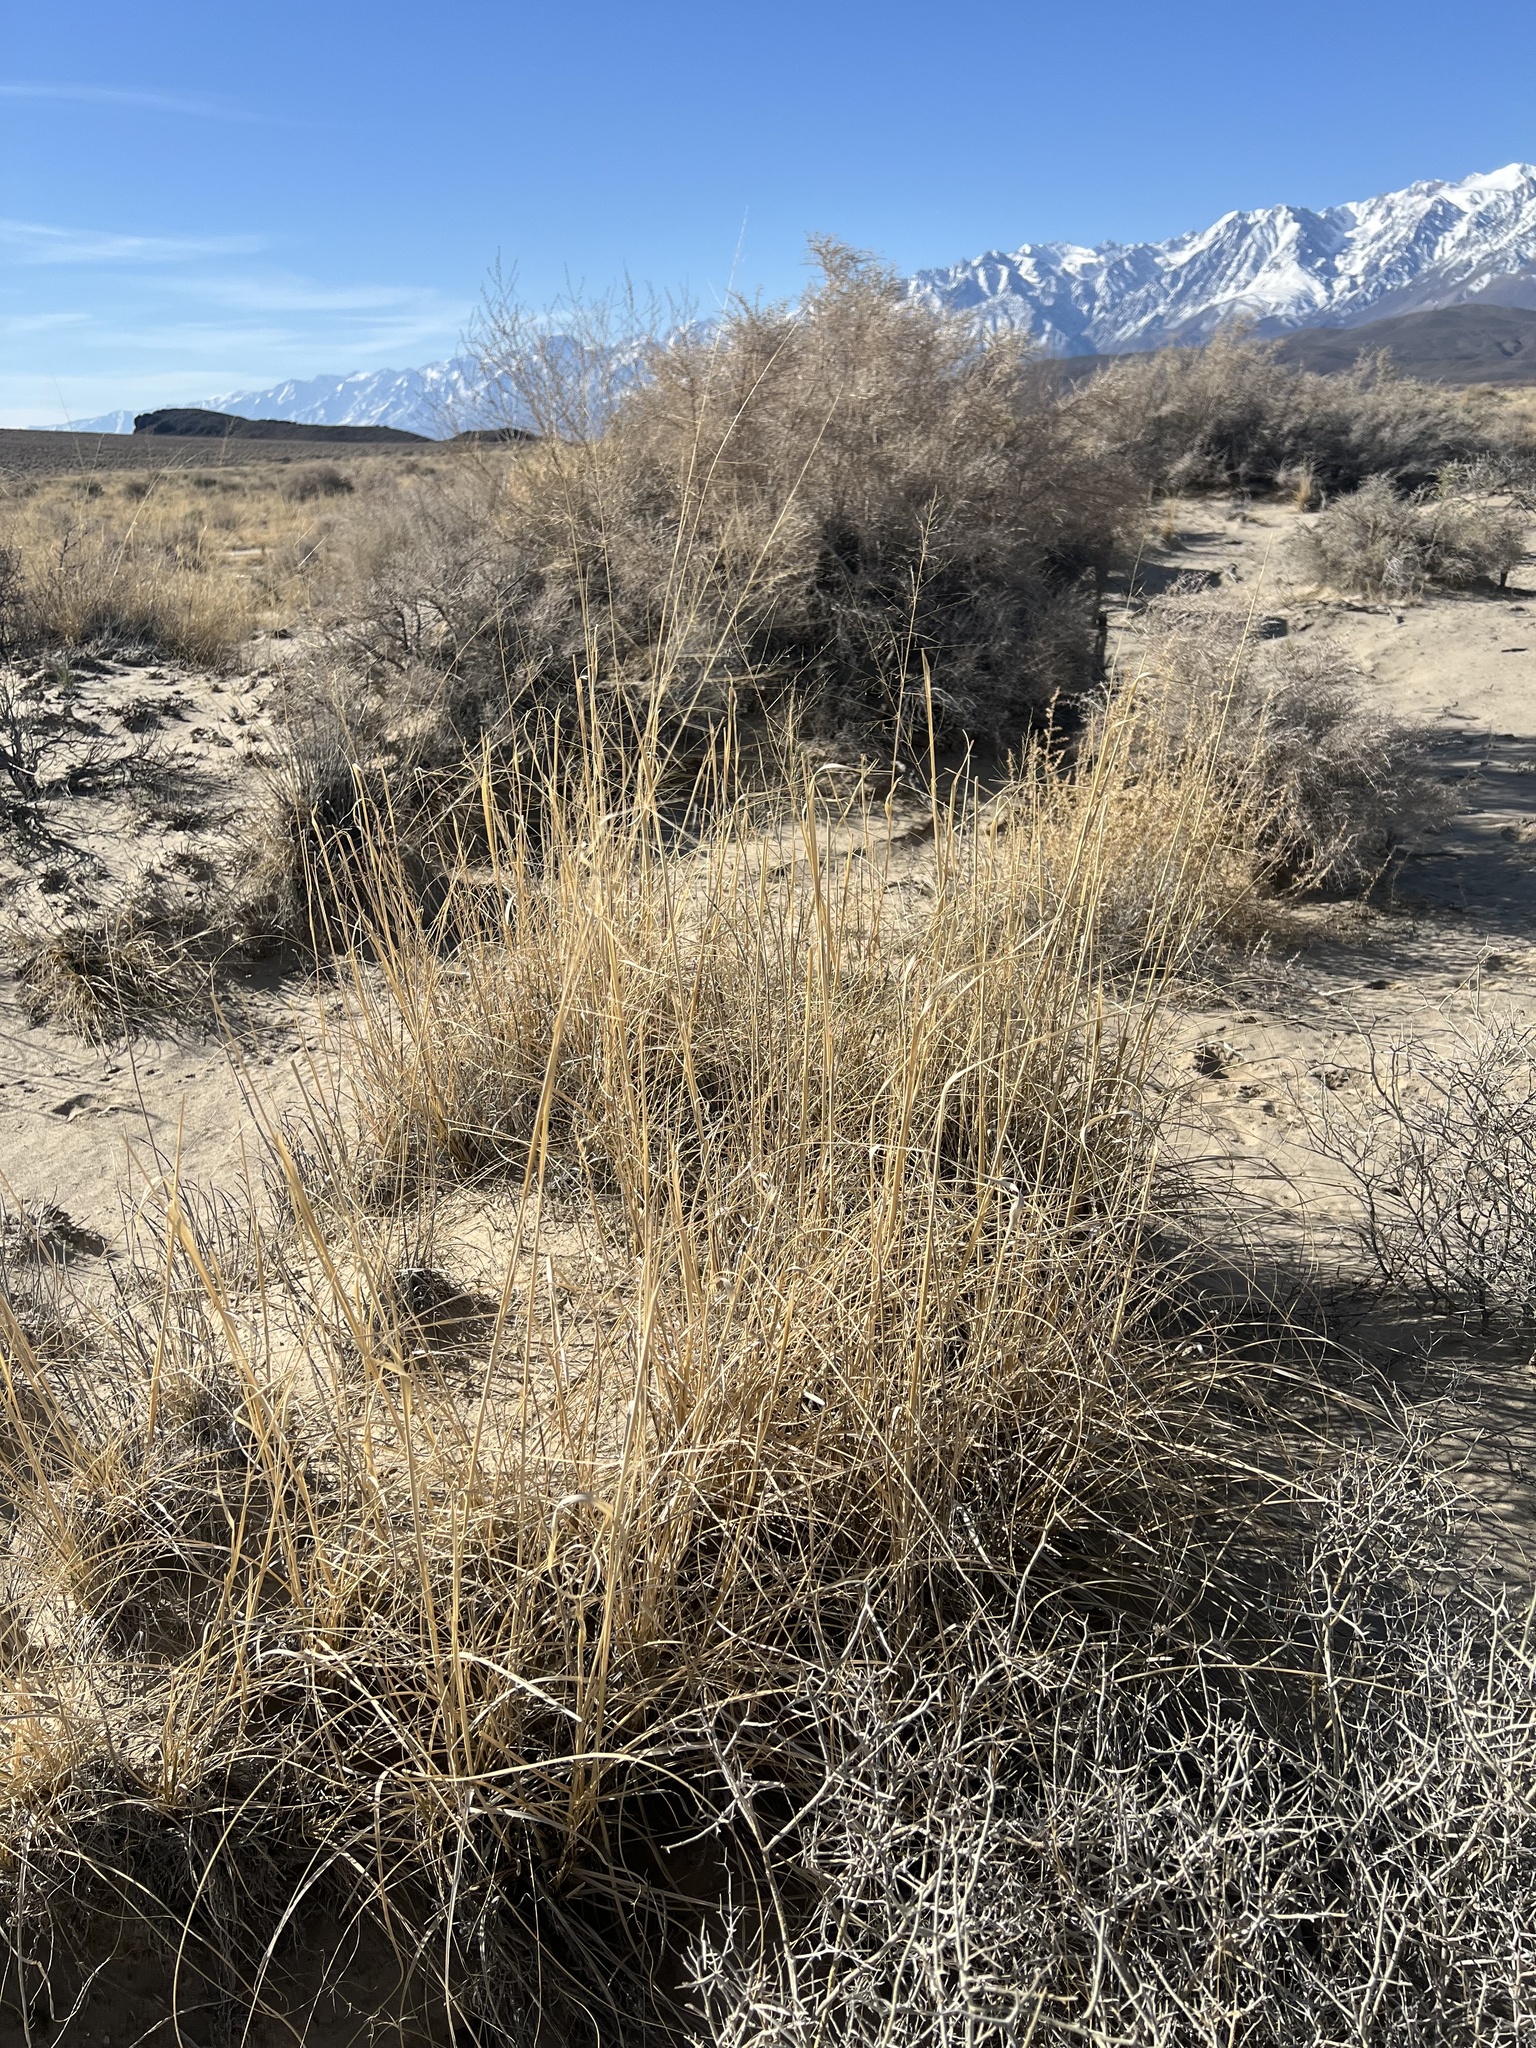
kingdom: Plantae
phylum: Tracheophyta
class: Liliopsida
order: Poales
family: Poaceae
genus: Sporobolus
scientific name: Sporobolus airoides
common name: Alkali sacaton
